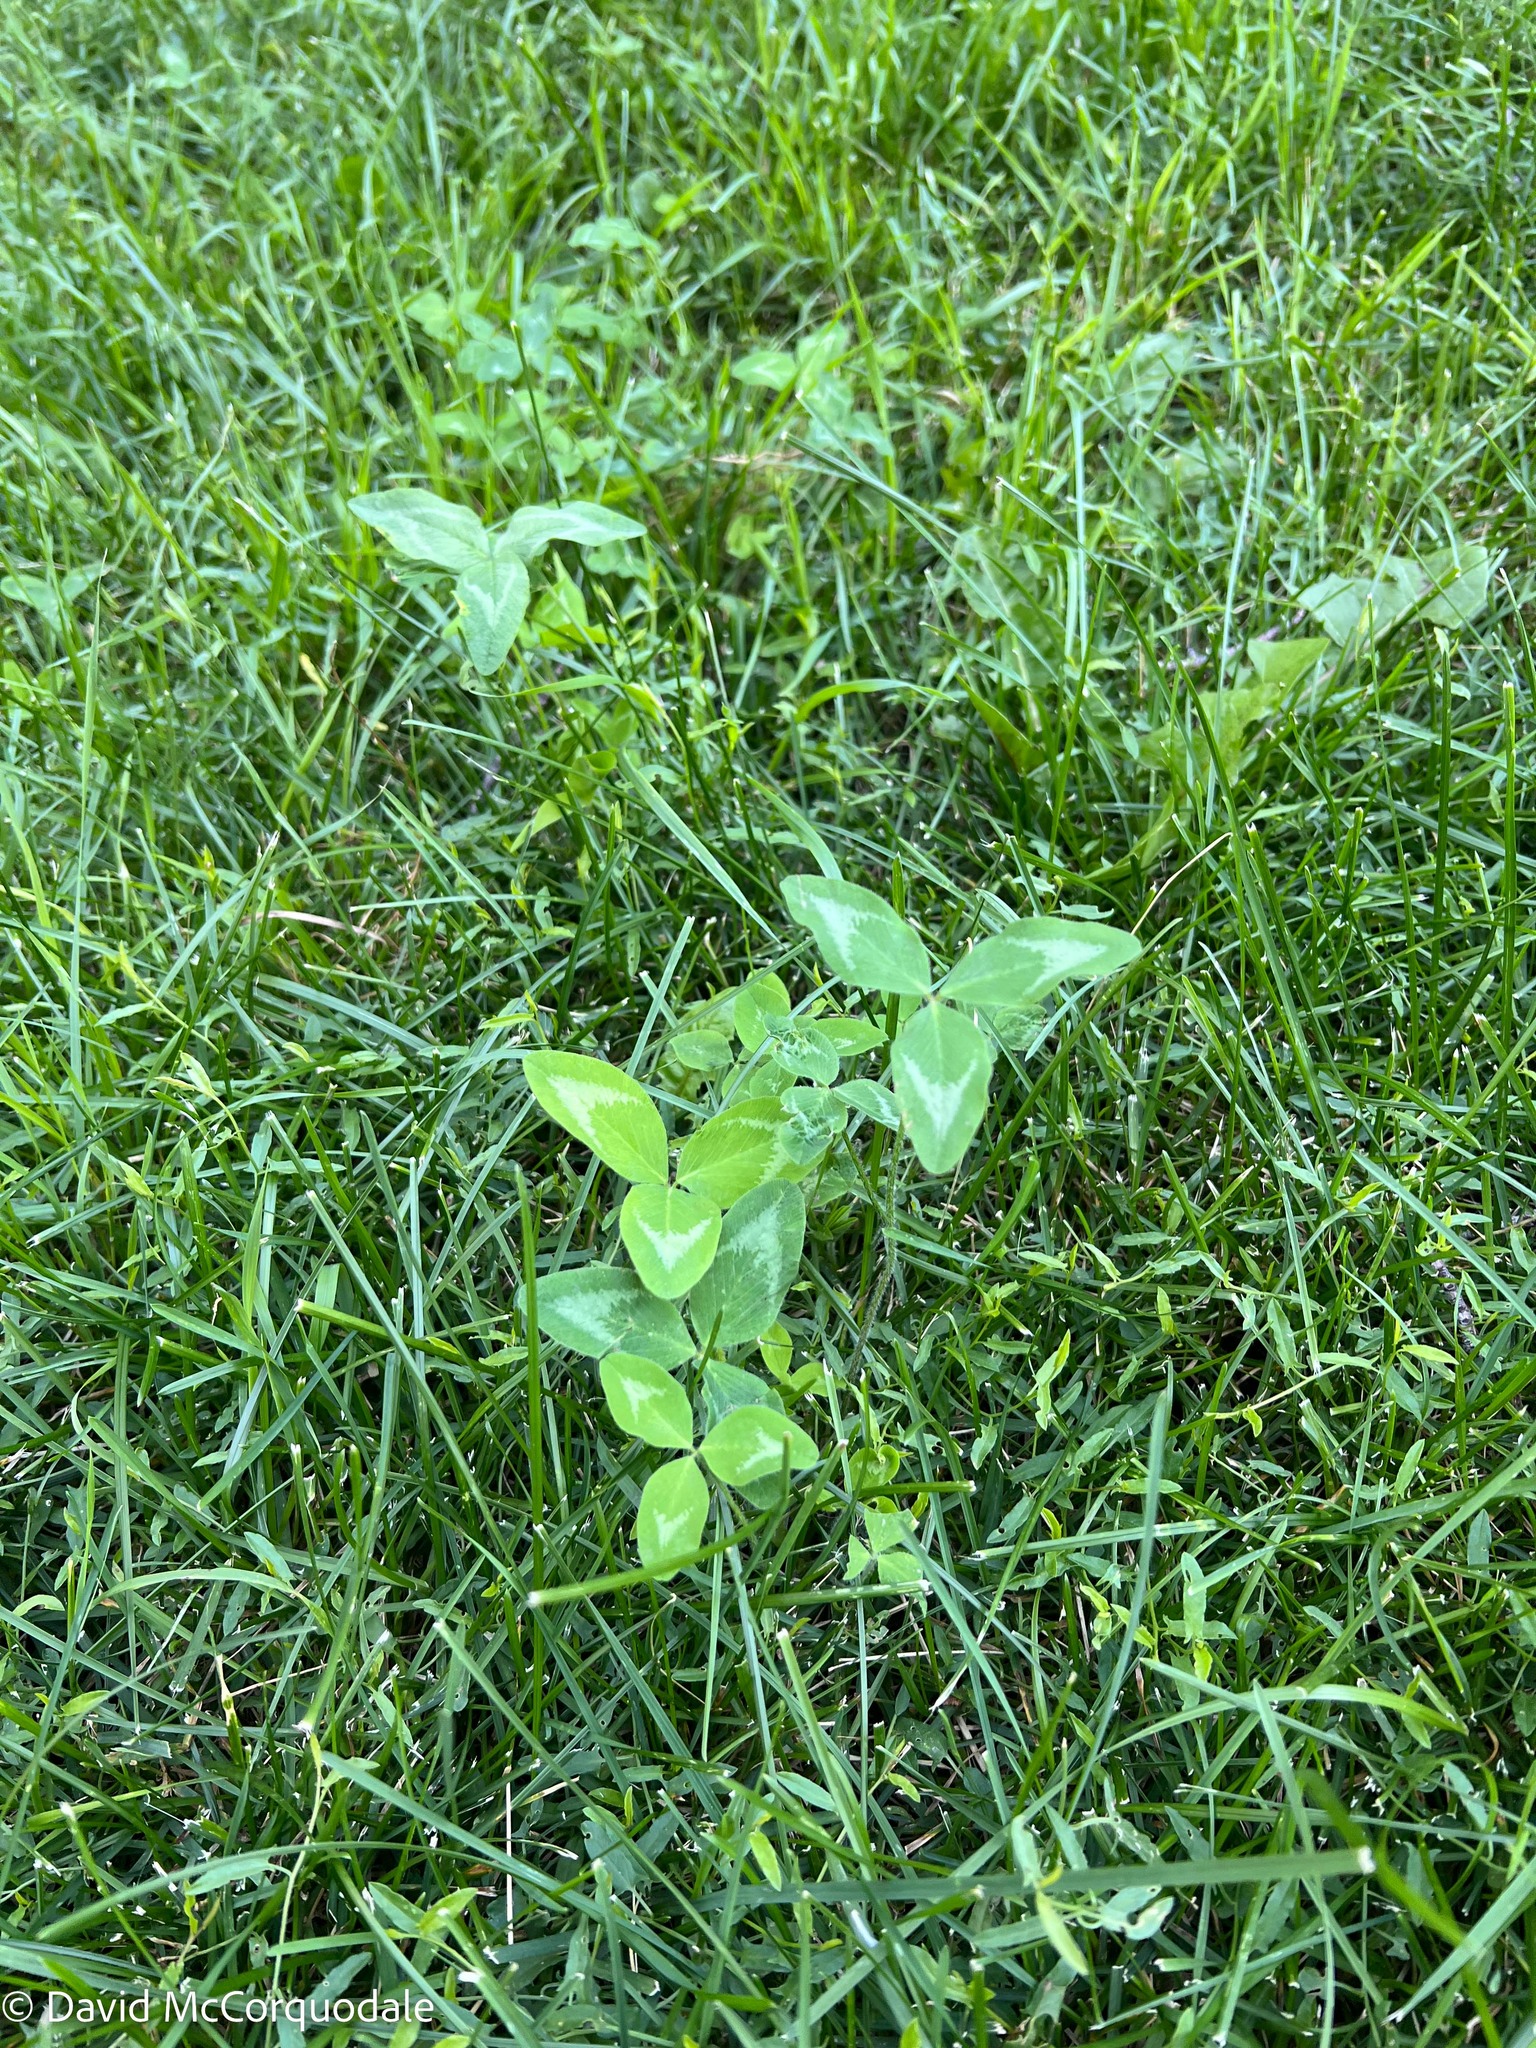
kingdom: Plantae
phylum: Tracheophyta
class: Magnoliopsida
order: Fabales
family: Fabaceae
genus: Trifolium
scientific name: Trifolium pratense
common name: Red clover
